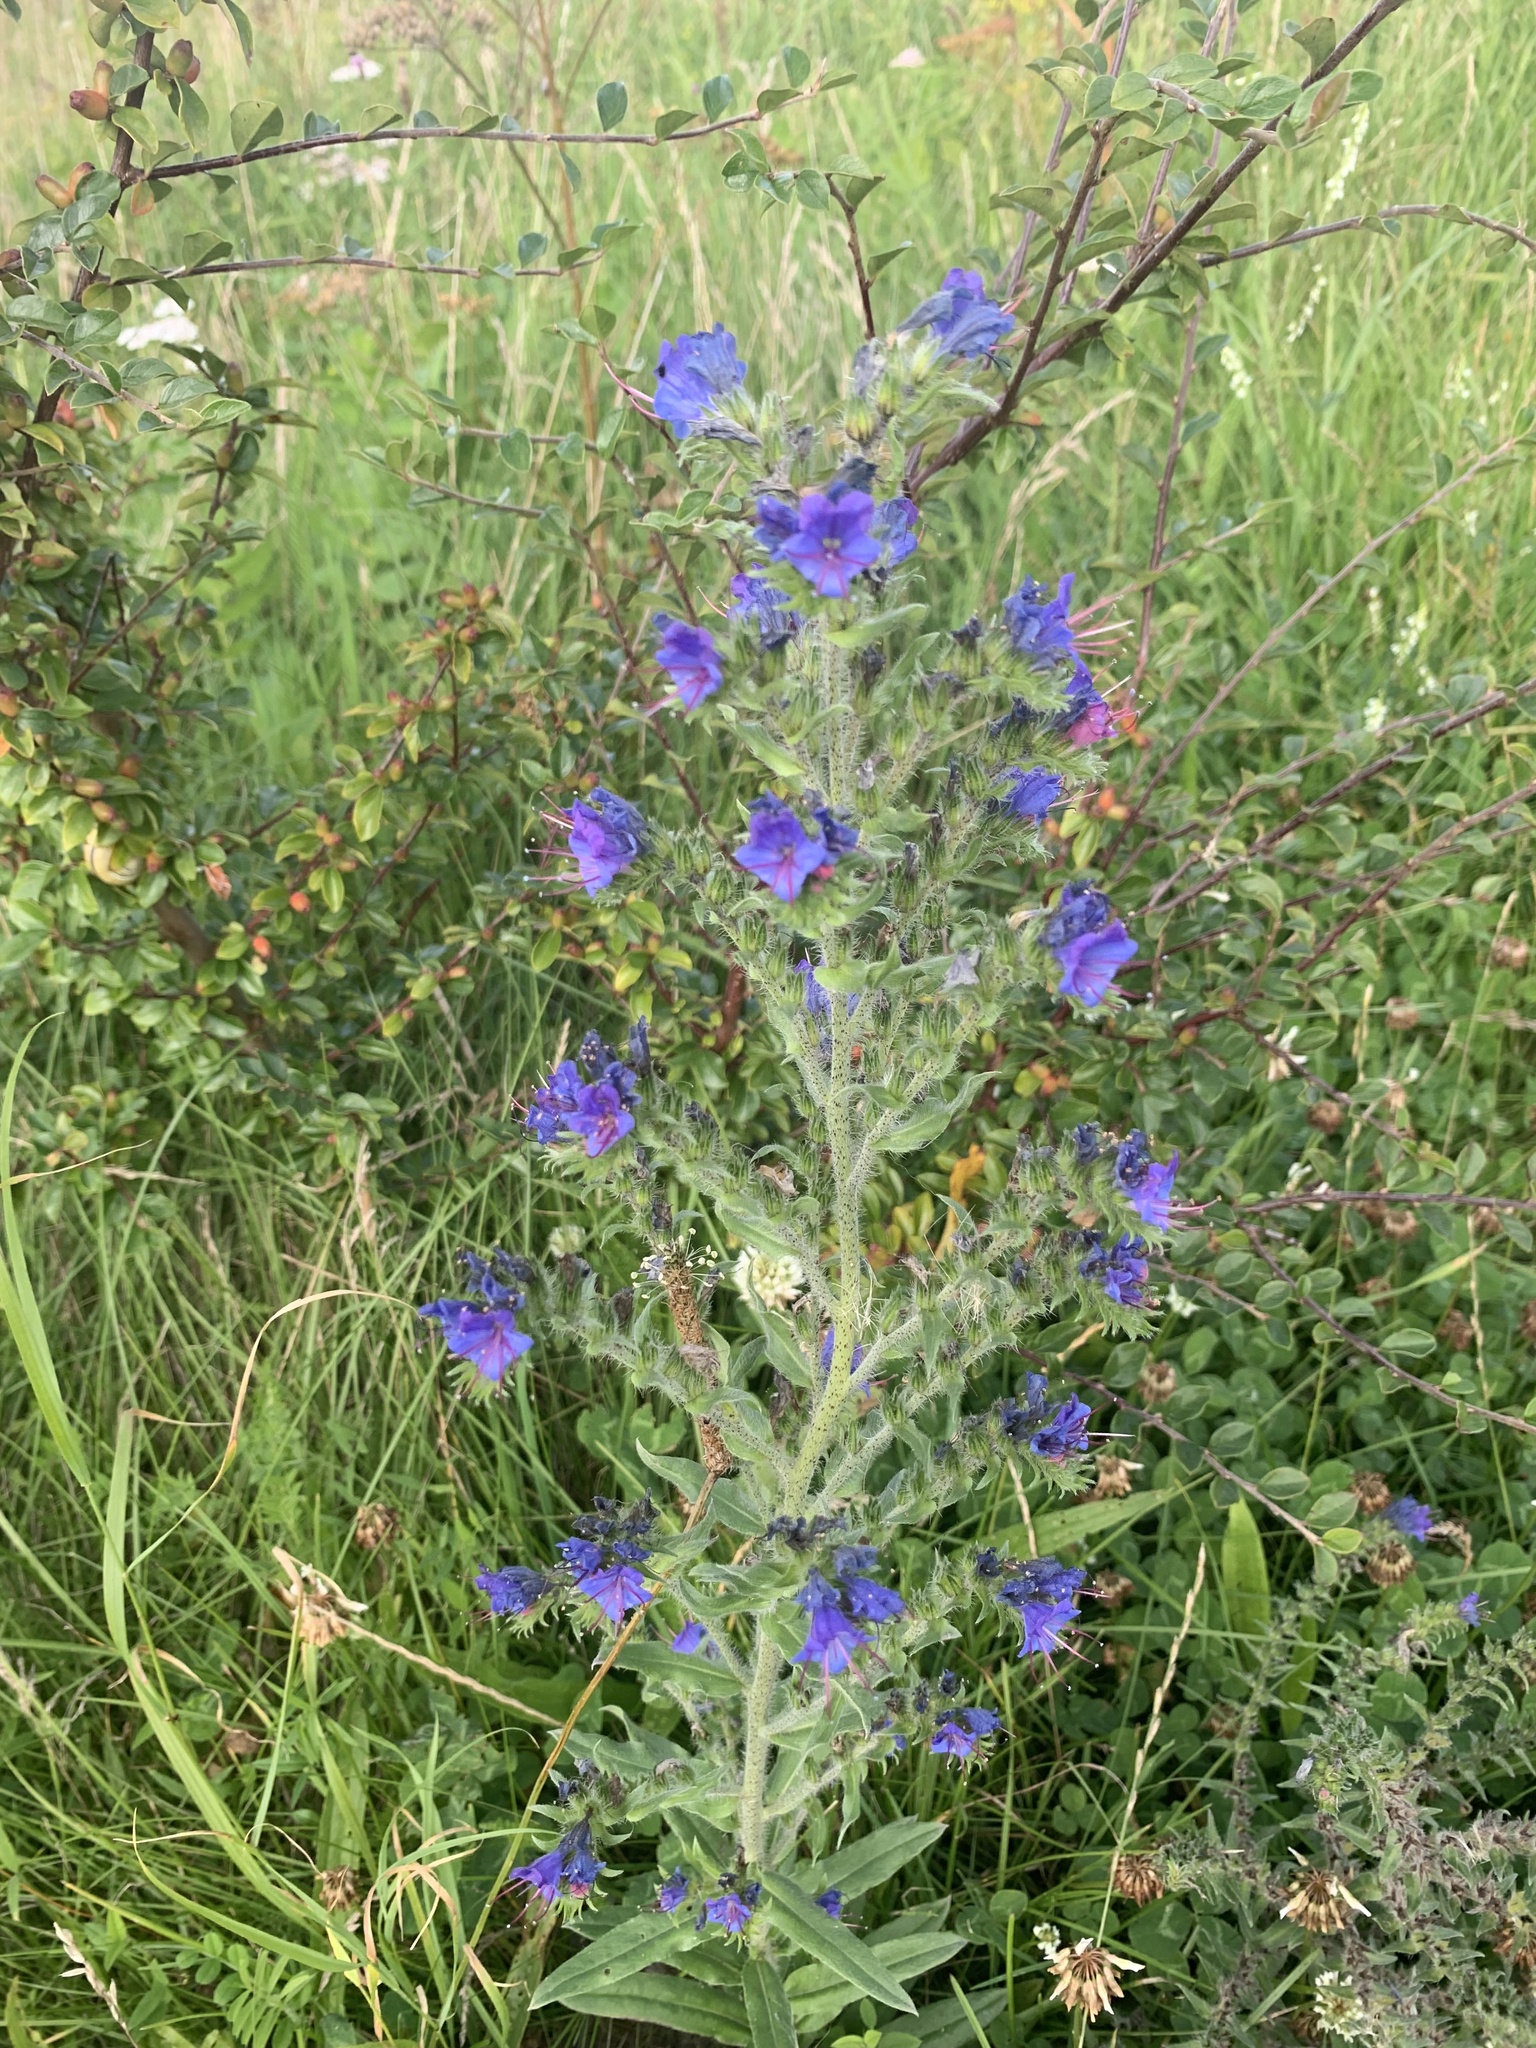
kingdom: Plantae
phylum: Tracheophyta
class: Magnoliopsida
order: Boraginales
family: Boraginaceae
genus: Echium
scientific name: Echium vulgare
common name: Common viper's bugloss
